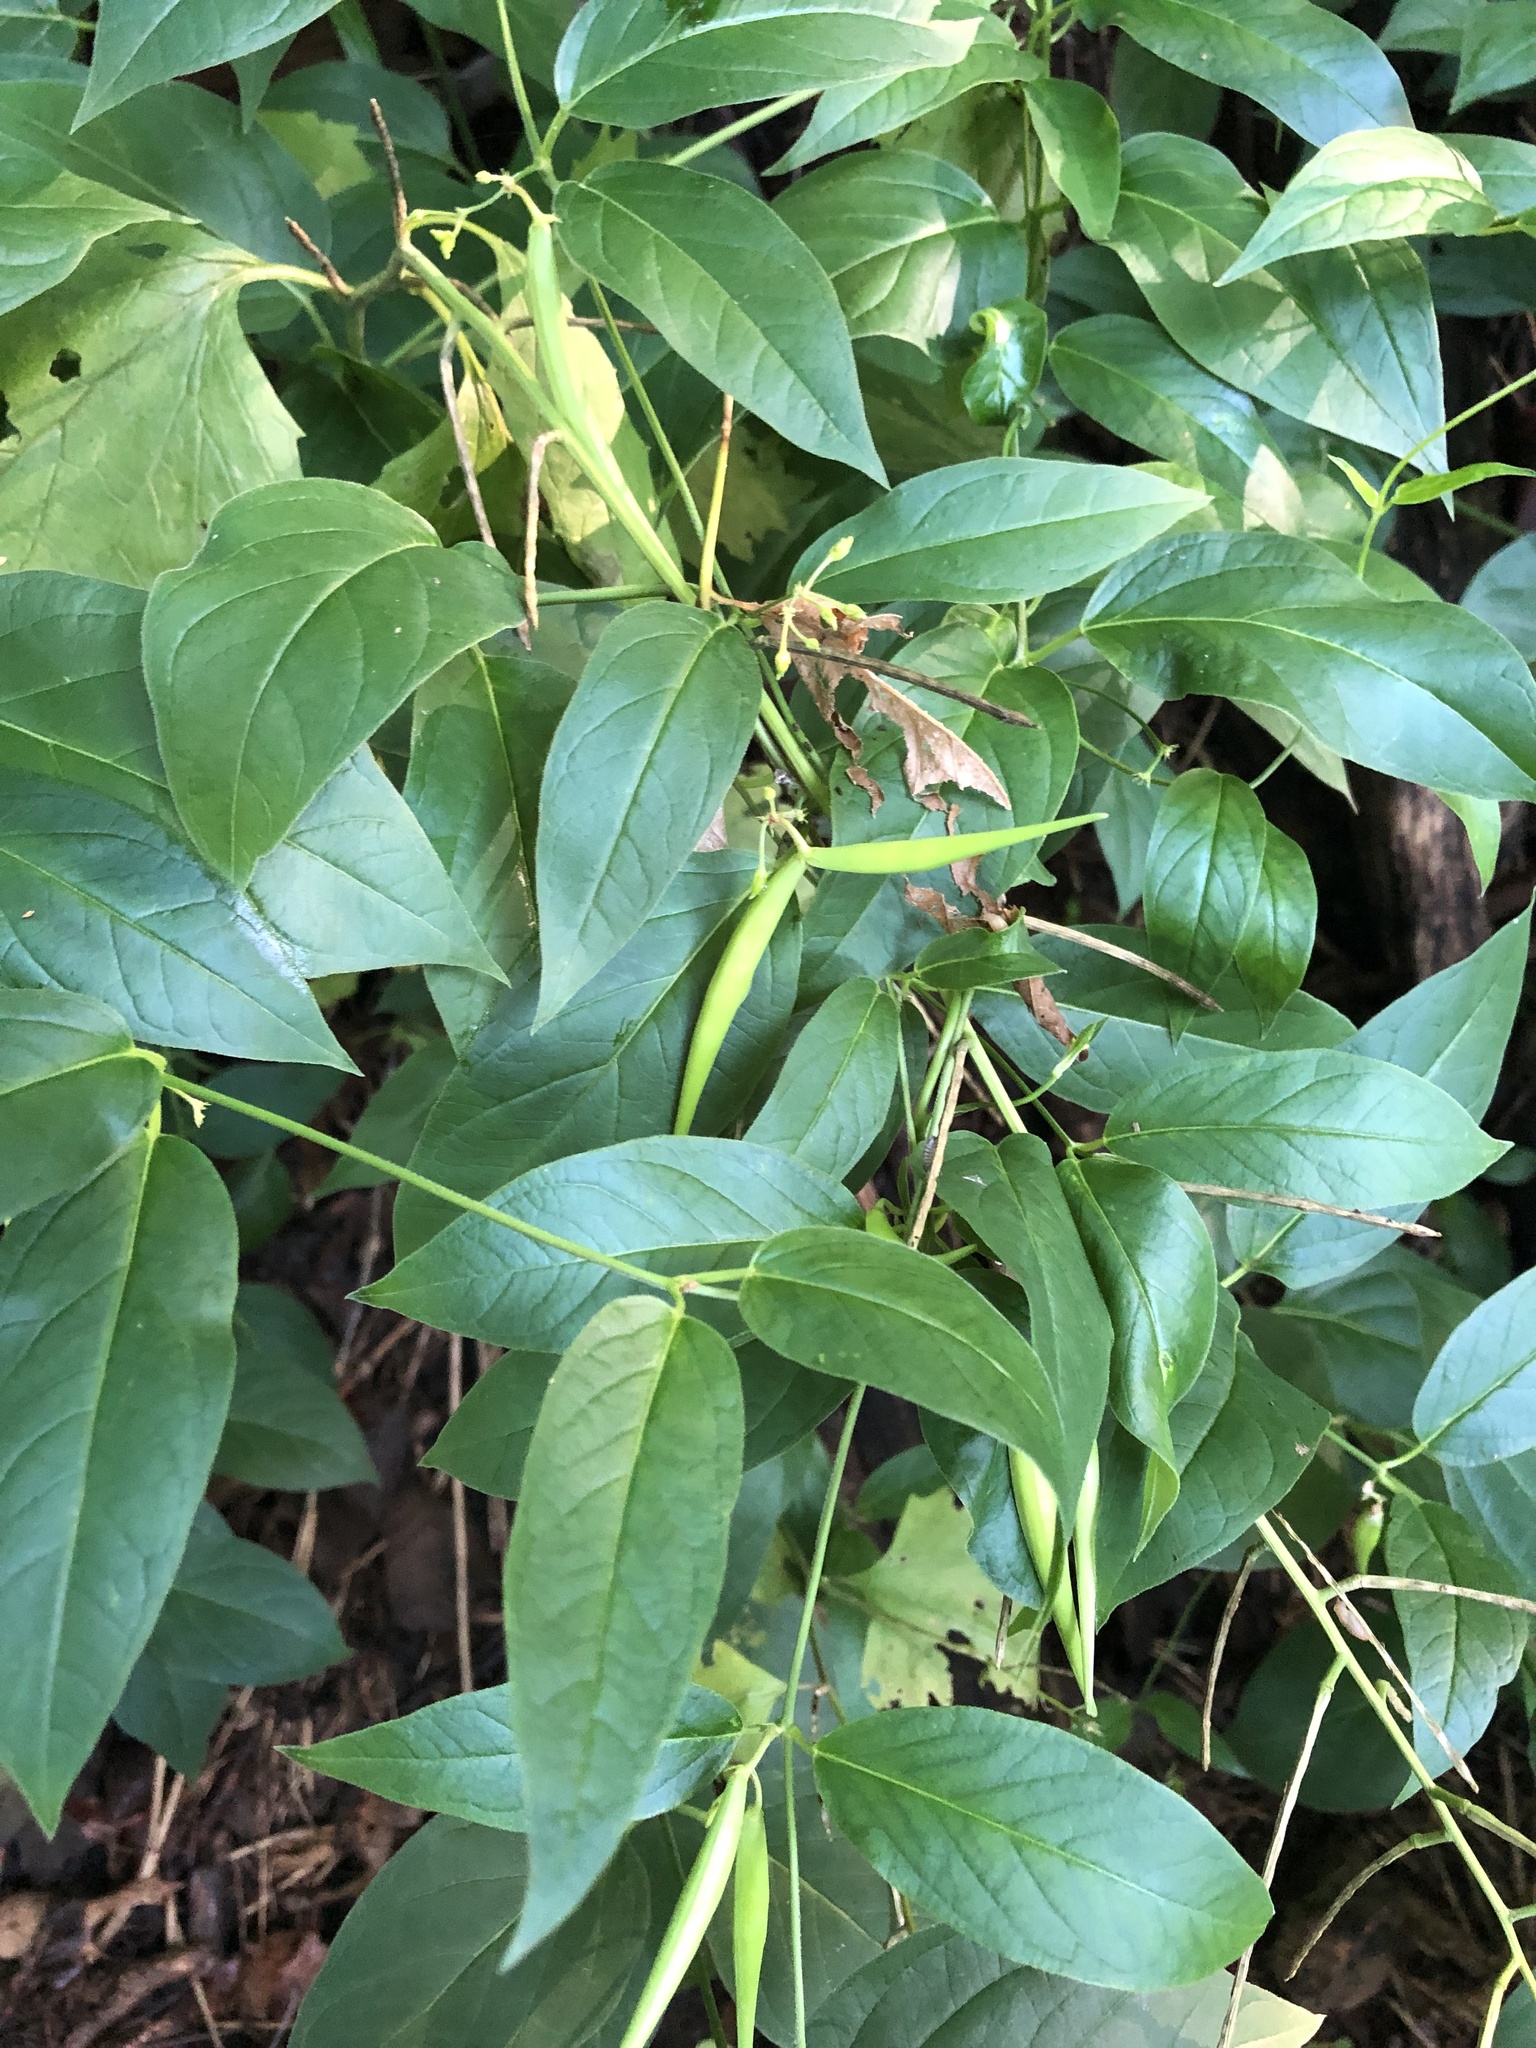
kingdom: Plantae
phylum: Tracheophyta
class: Magnoliopsida
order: Gentianales
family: Apocynaceae
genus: Vincetoxicum
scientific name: Vincetoxicum rossicum
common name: Dog-strangling vine
